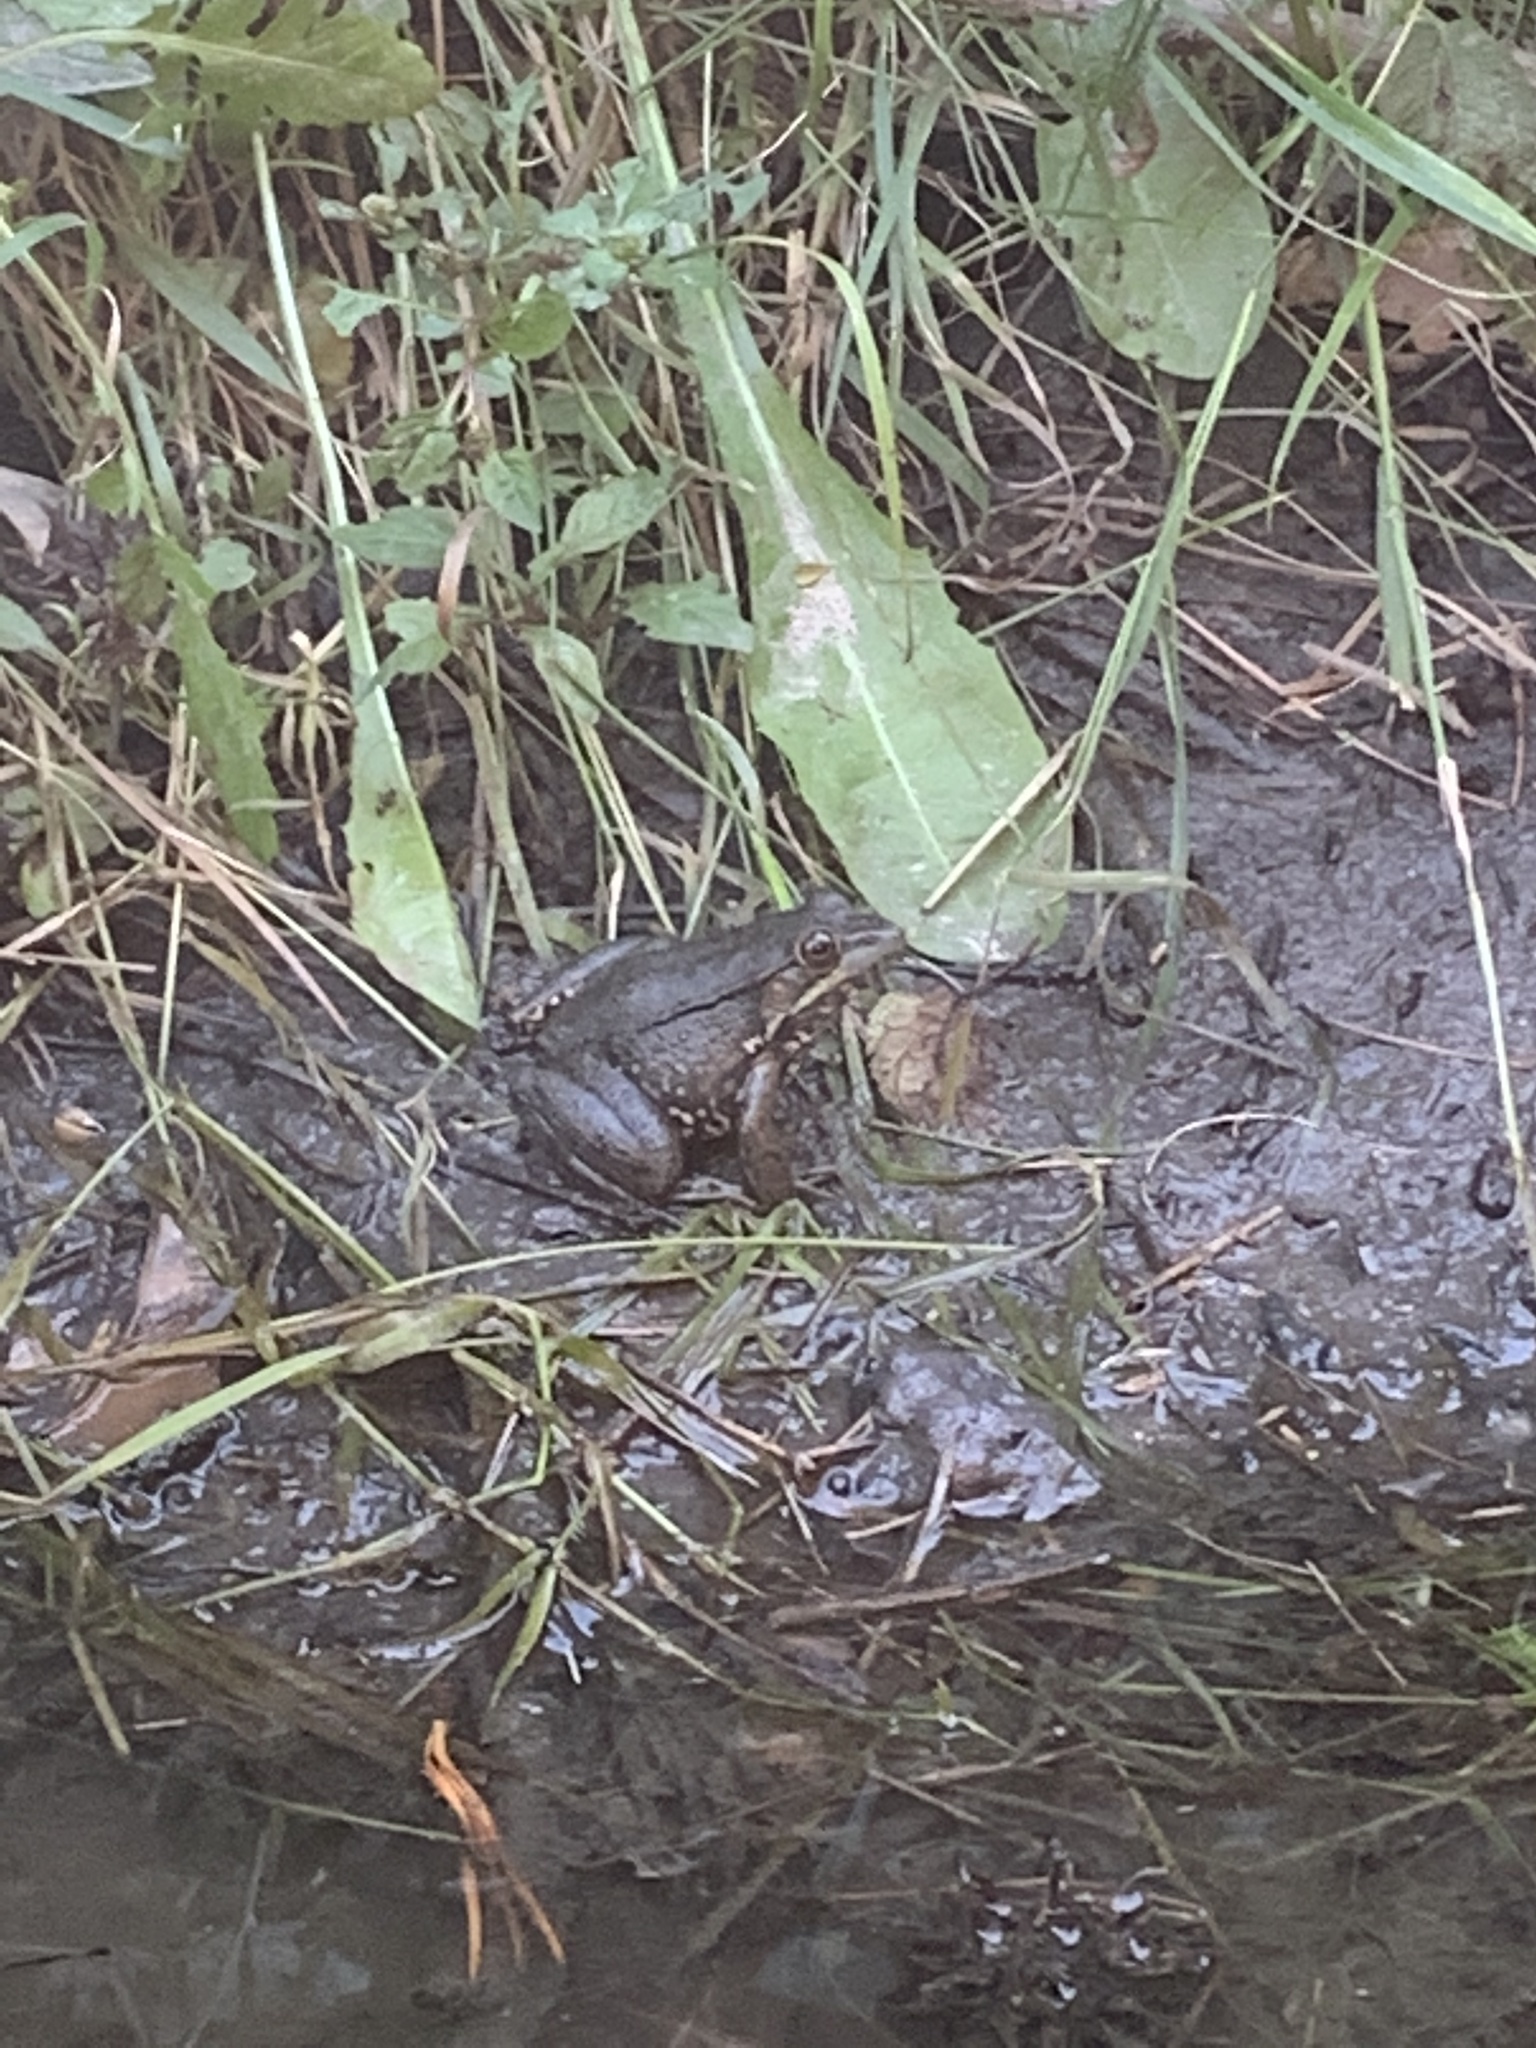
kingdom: Animalia
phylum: Chordata
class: Amphibia
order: Anura
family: Ranidae
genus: Lithobates
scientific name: Lithobates clamitans
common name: Green frog
